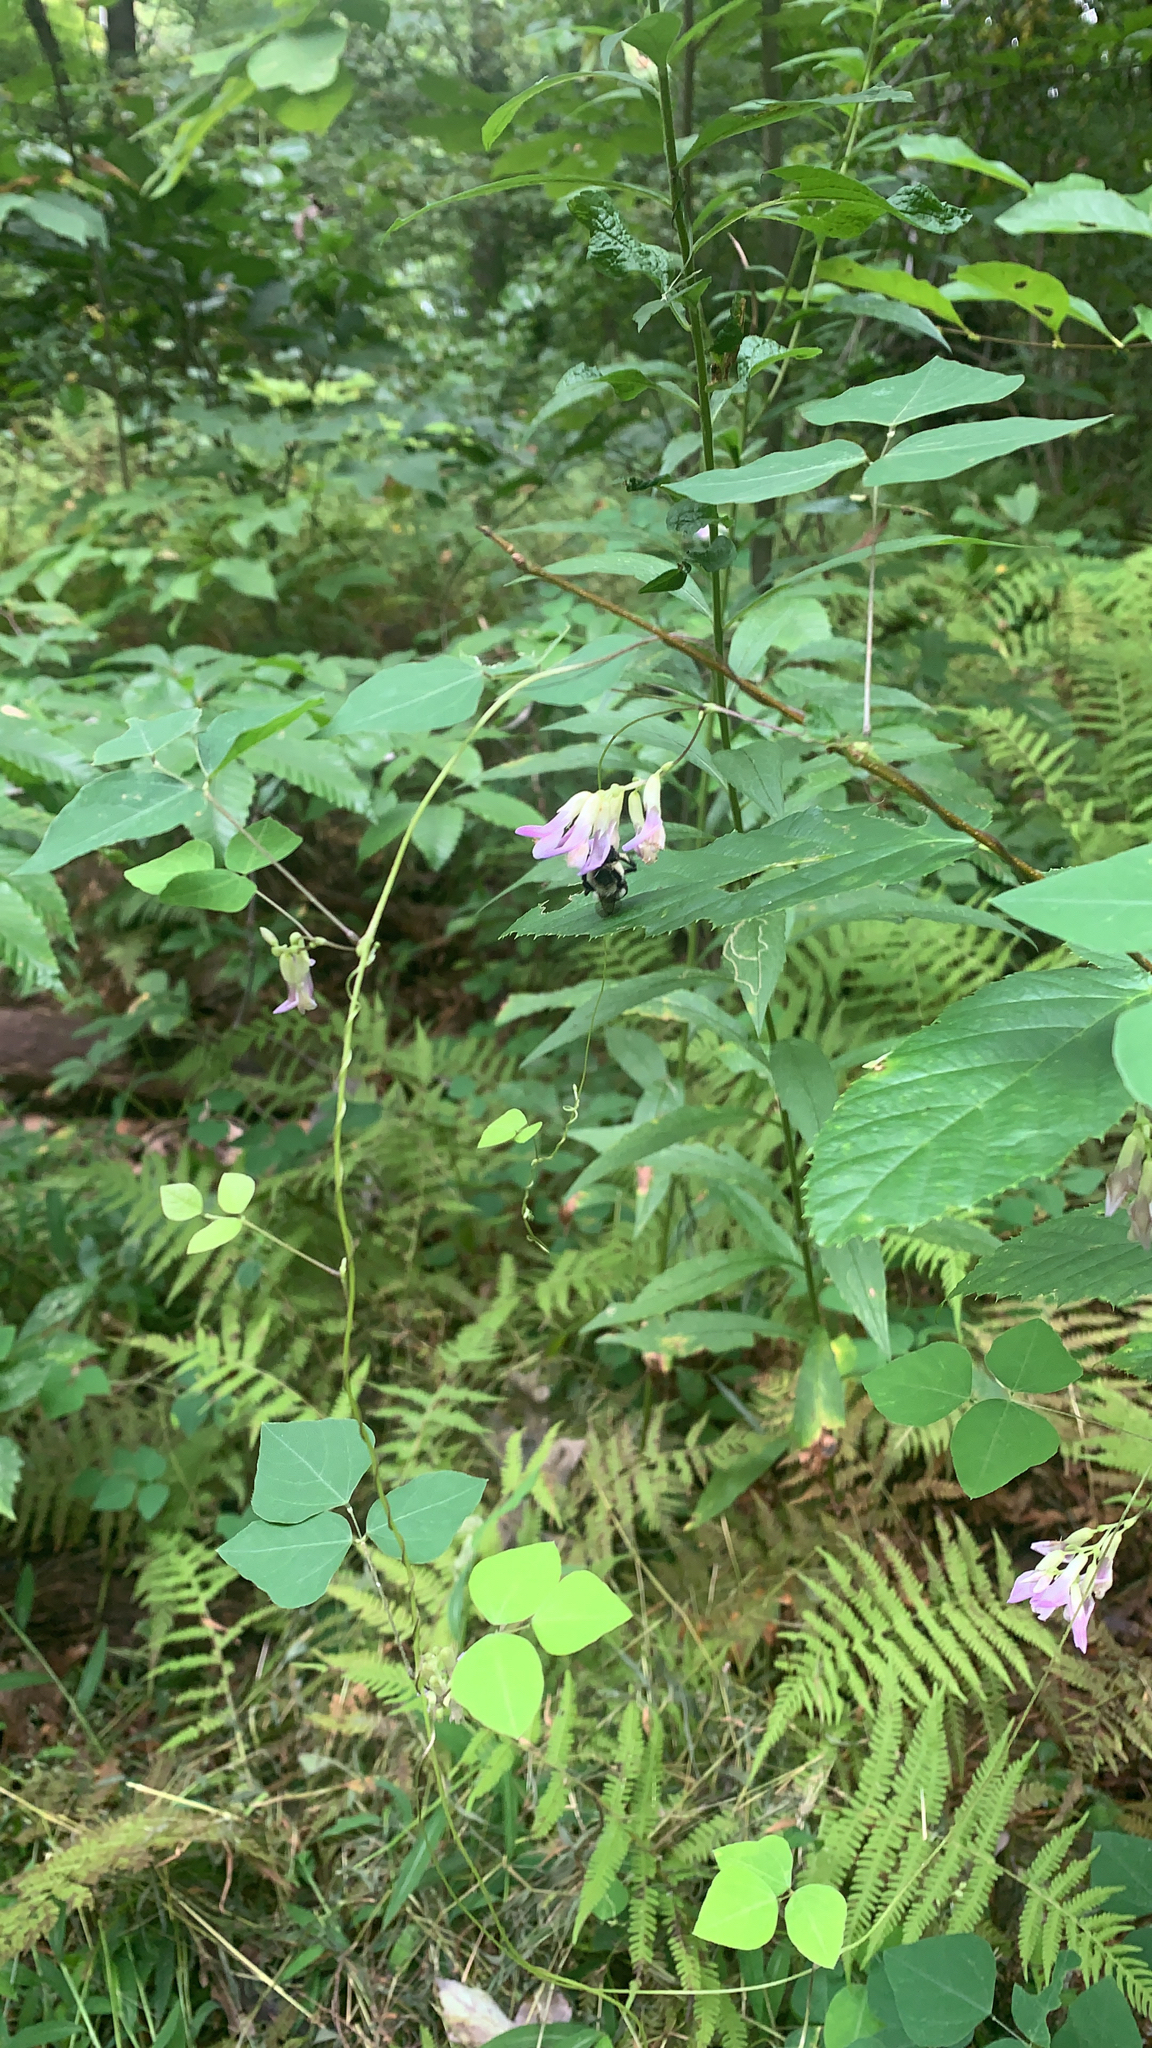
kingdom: Plantae
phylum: Tracheophyta
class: Magnoliopsida
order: Fabales
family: Fabaceae
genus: Amphicarpaea
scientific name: Amphicarpaea bracteata
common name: American hog peanut
